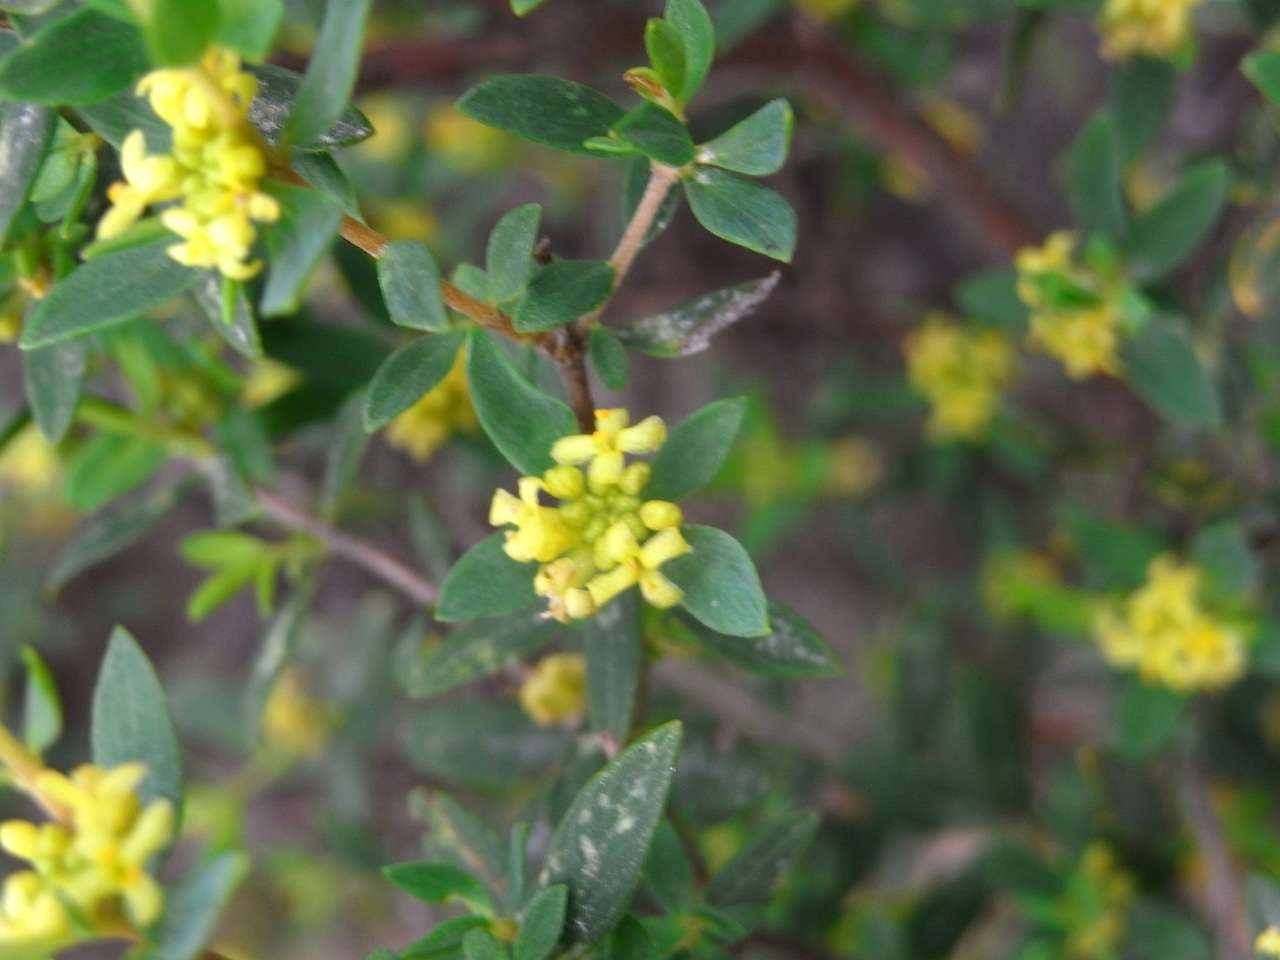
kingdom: Plantae
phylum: Tracheophyta
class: Magnoliopsida
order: Malvales
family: Thymelaeaceae
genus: Pimelea
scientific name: Pimelea hewardiana
